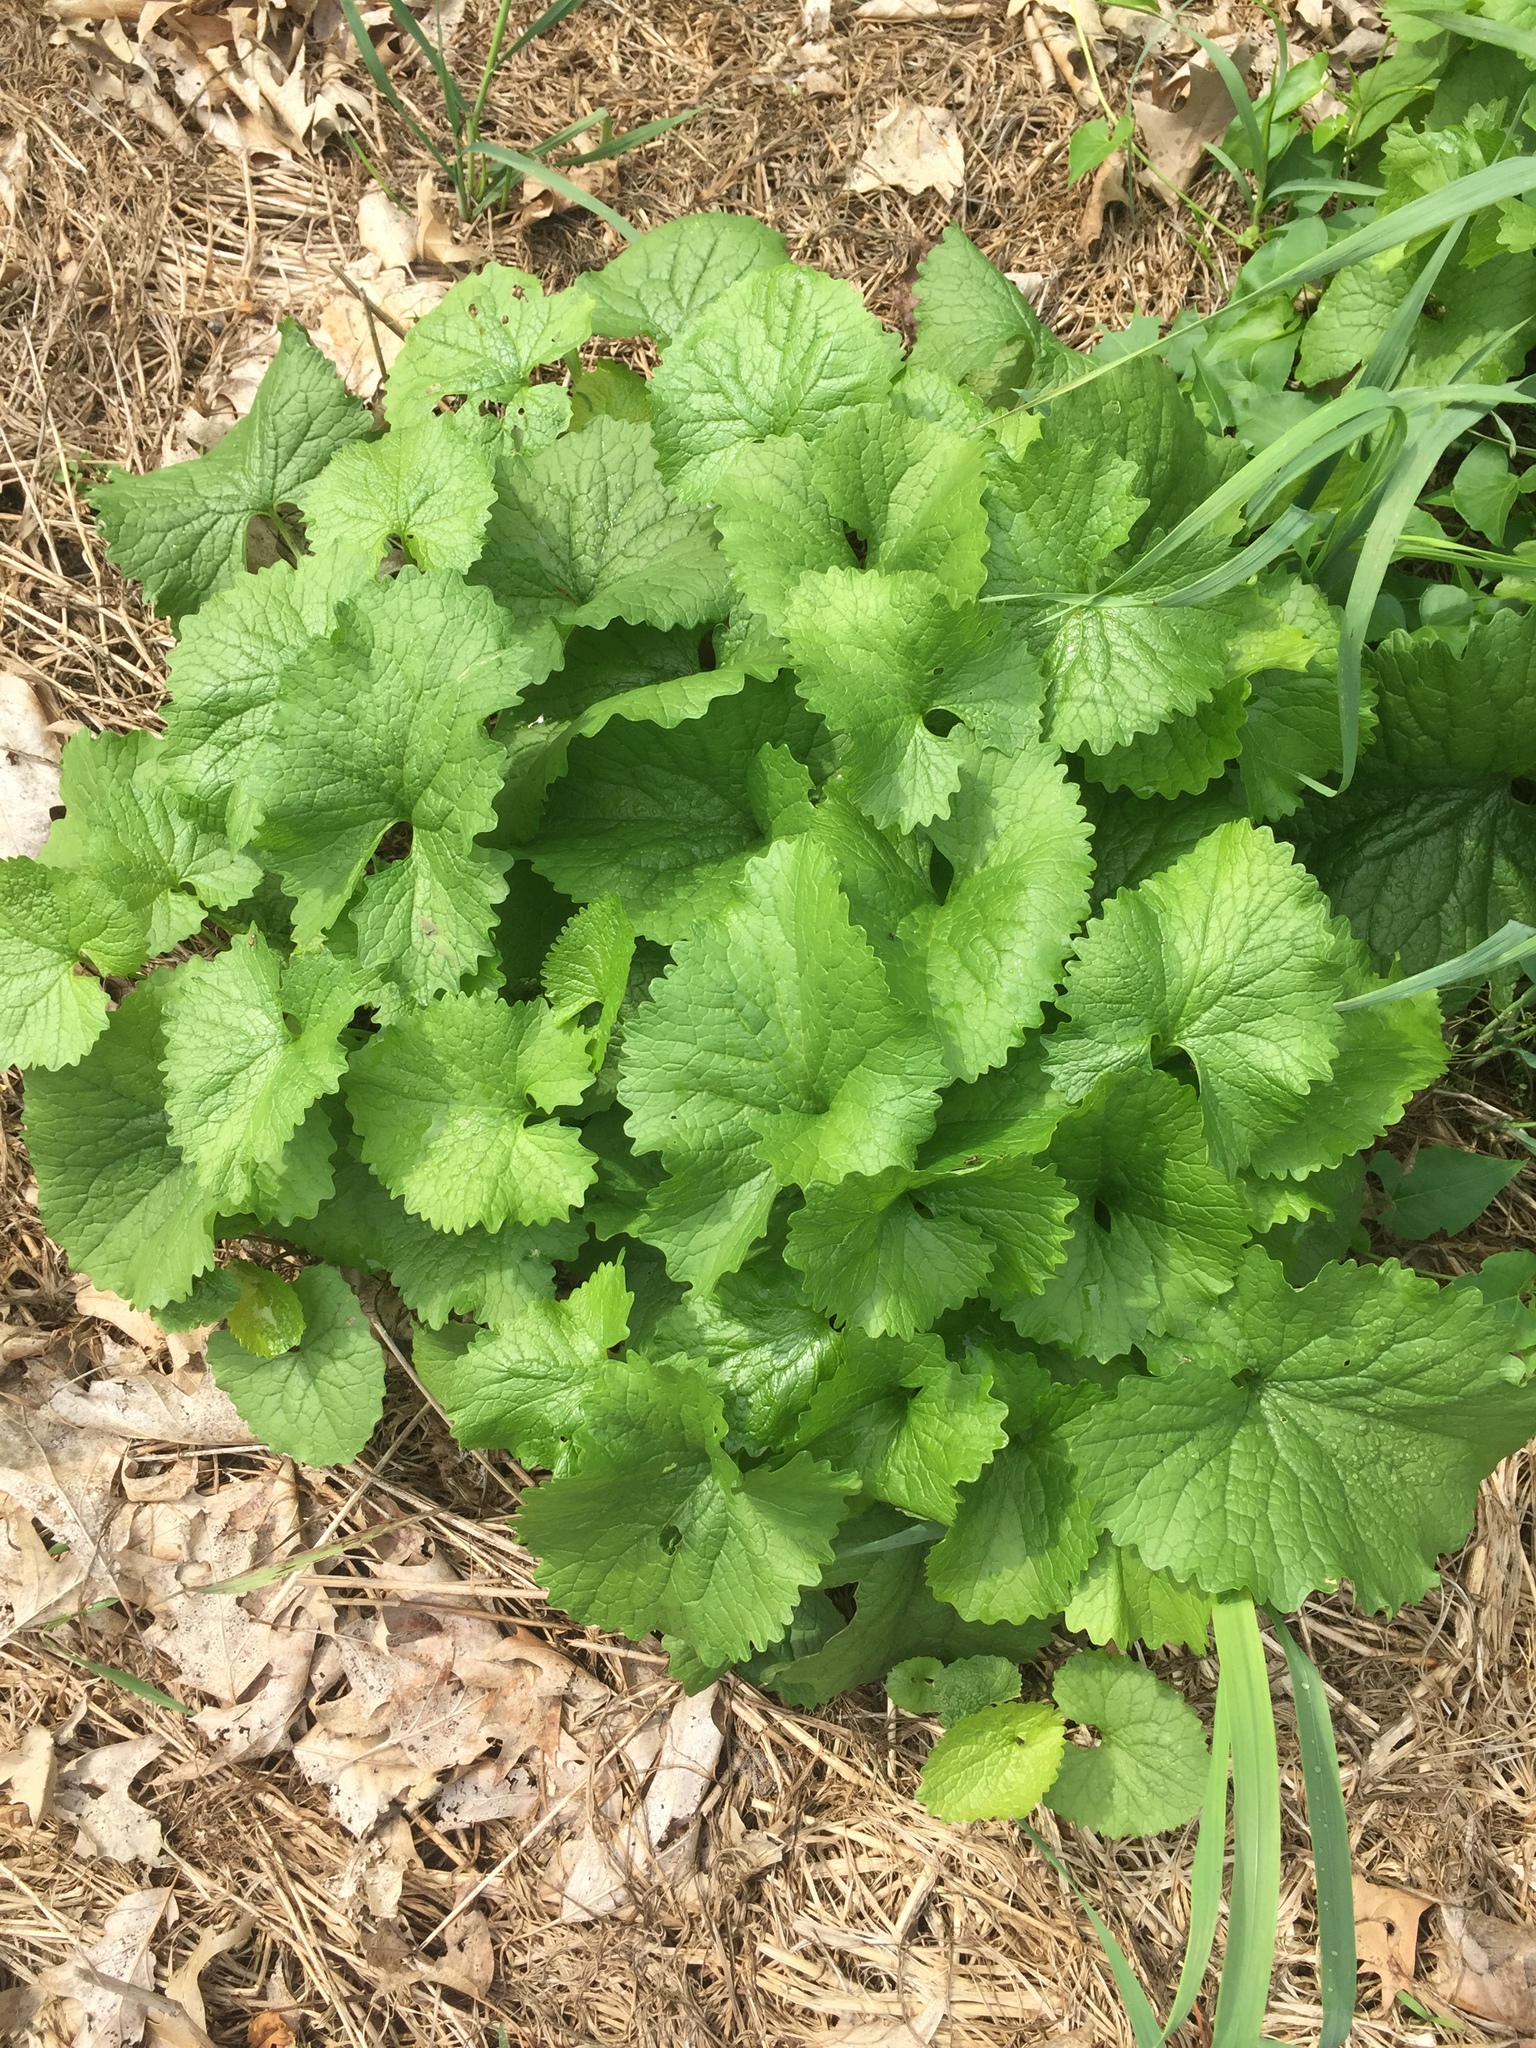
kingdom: Plantae
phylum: Tracheophyta
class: Magnoliopsida
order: Brassicales
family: Brassicaceae
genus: Alliaria
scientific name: Alliaria petiolata
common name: Garlic mustard
